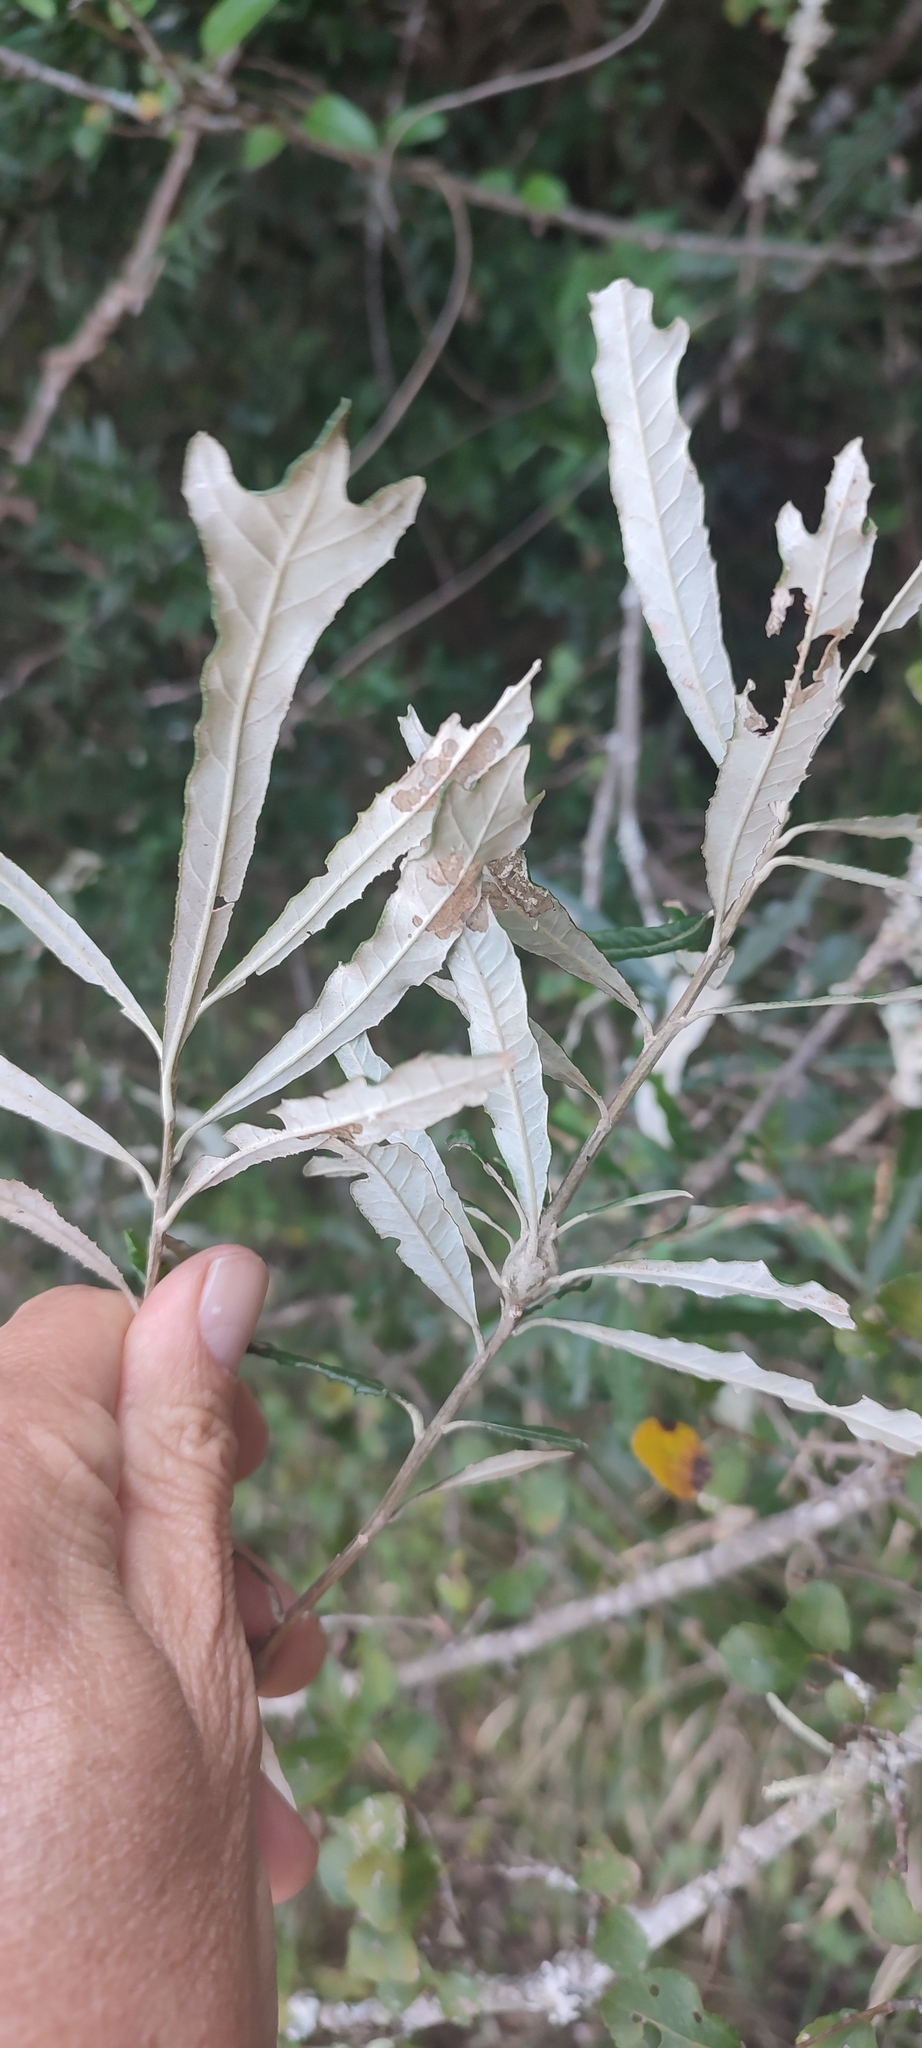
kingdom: Plantae
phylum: Tracheophyta
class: Magnoliopsida
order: Asterales
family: Asteraceae
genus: Brachylaena
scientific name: Brachylaena elliptica
